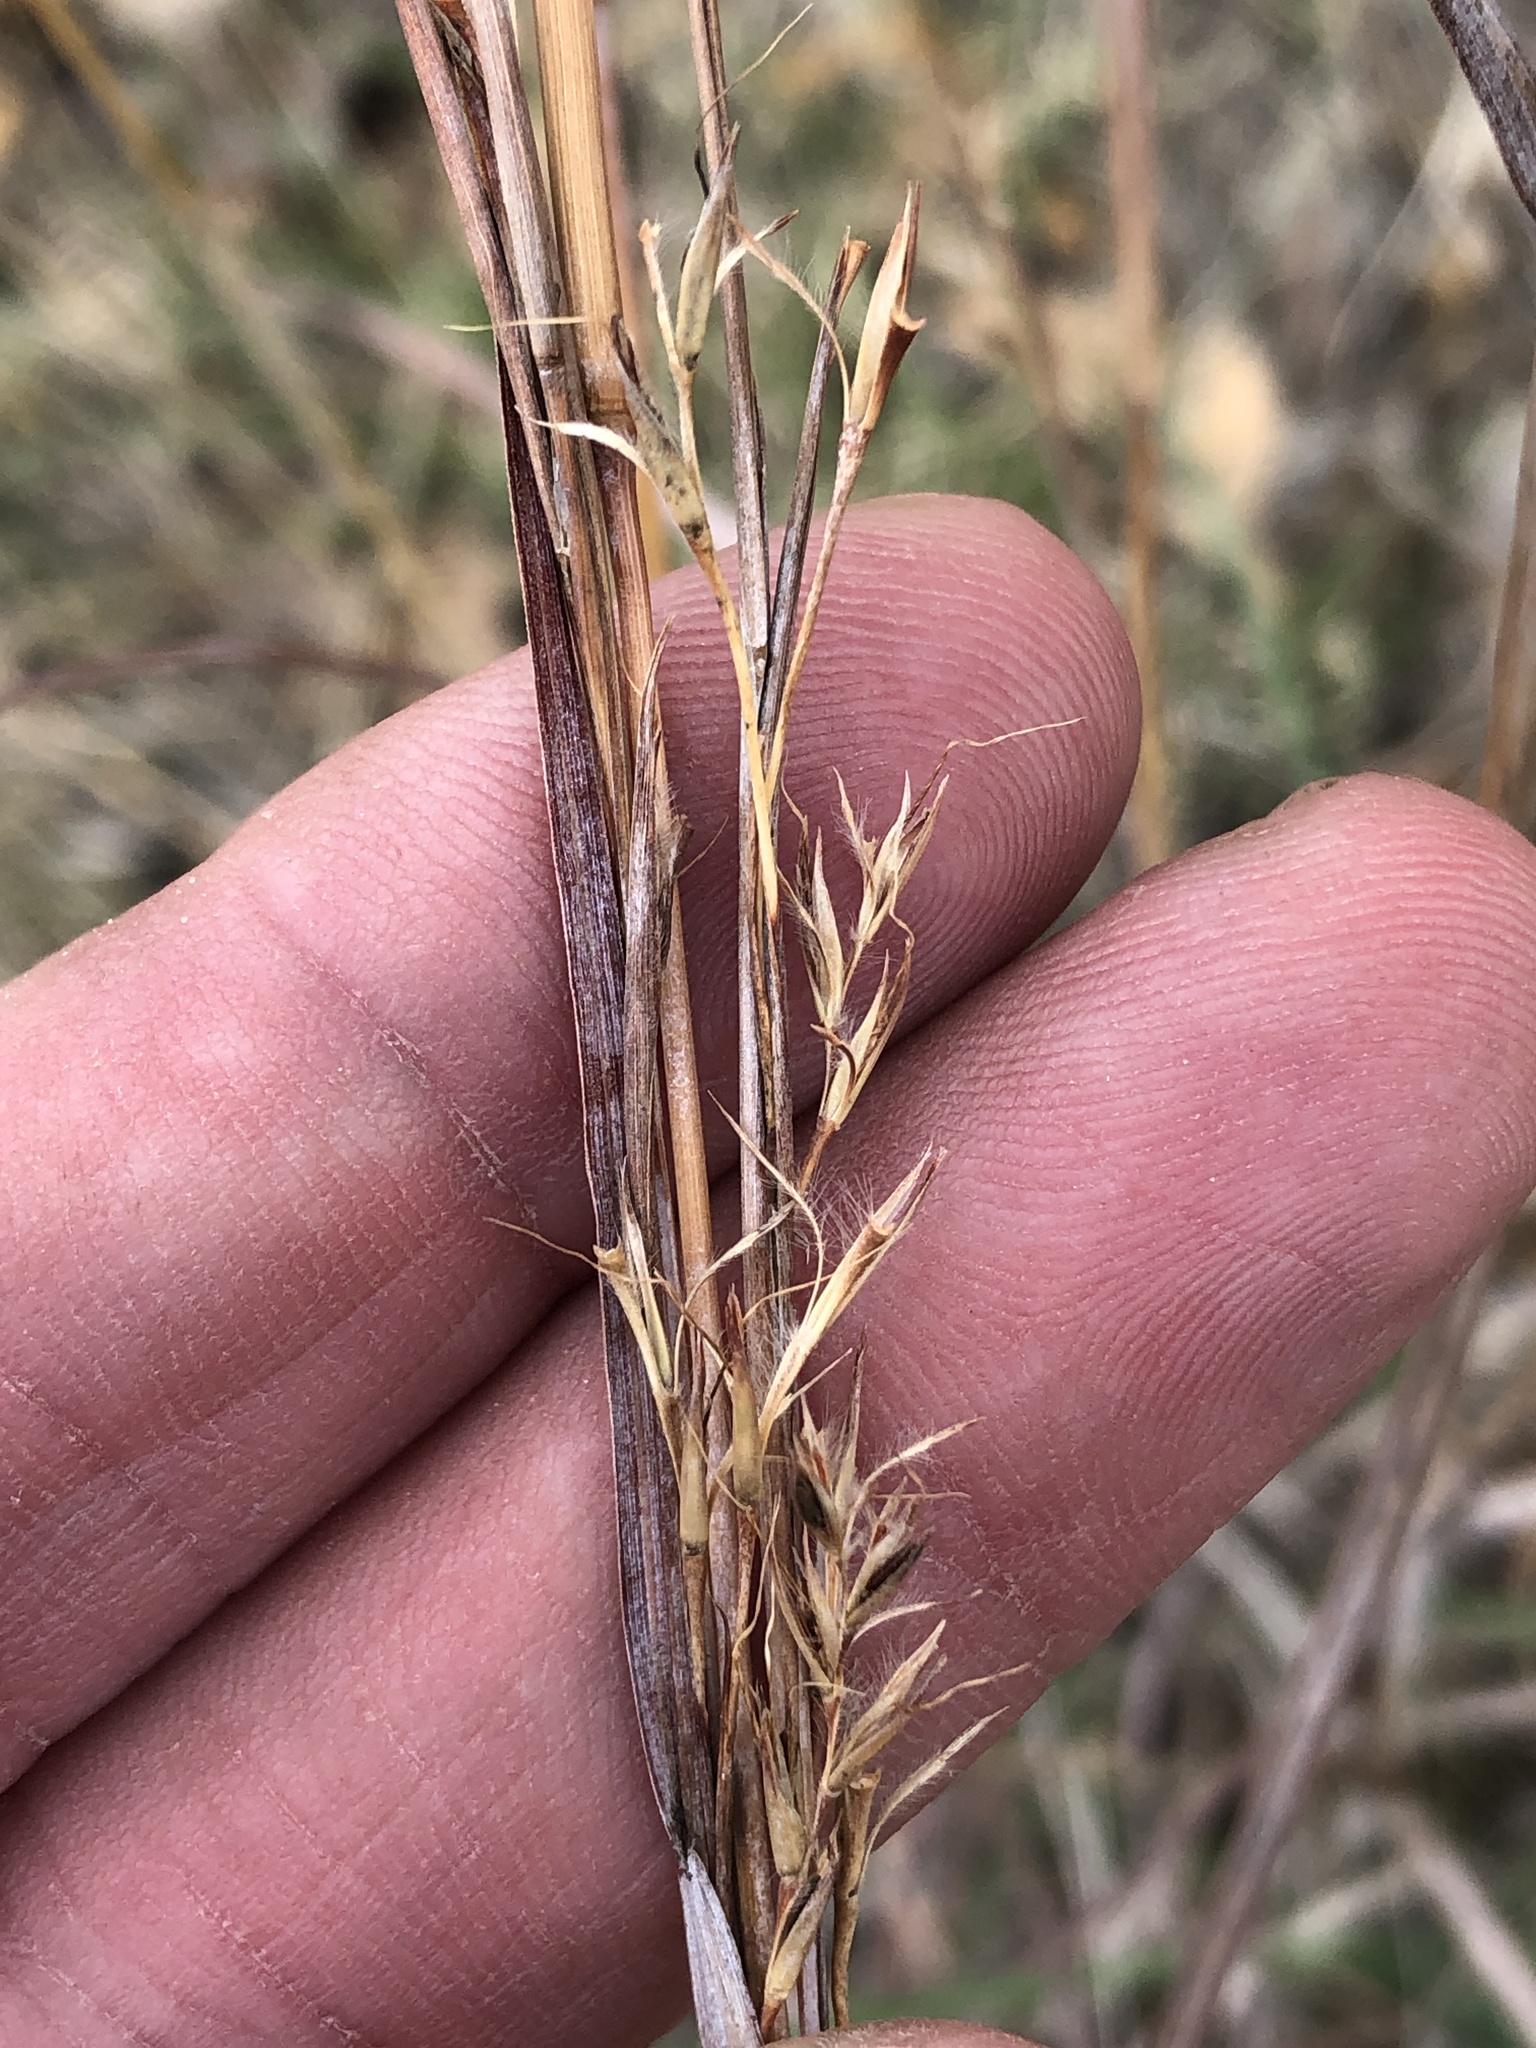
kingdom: Plantae
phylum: Tracheophyta
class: Liliopsida
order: Poales
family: Poaceae
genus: Schizachyrium
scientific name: Schizachyrium scoparium
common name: Little bluestem
